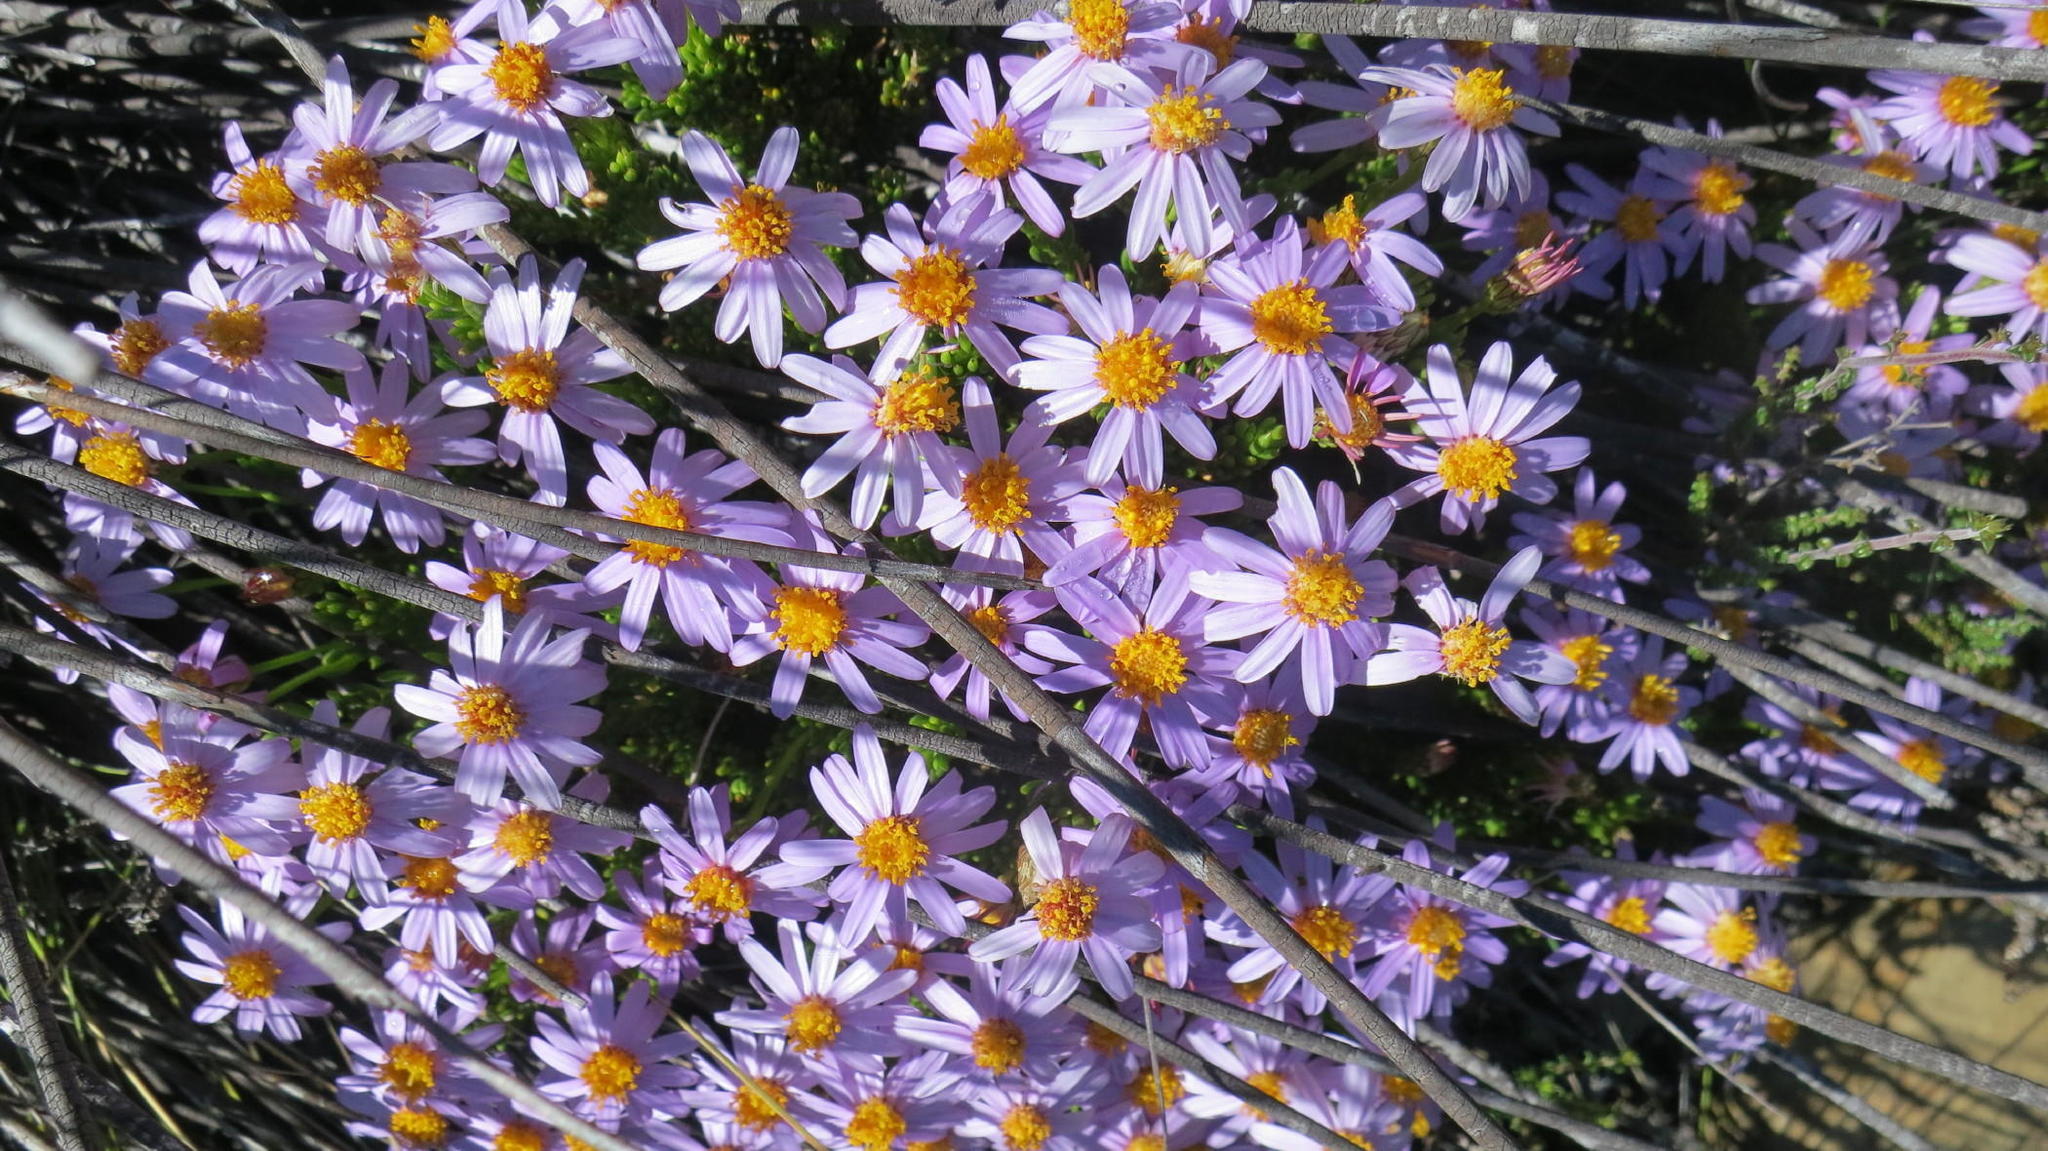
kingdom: Plantae
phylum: Tracheophyta
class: Magnoliopsida
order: Asterales
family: Asteraceae
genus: Felicia
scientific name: Felicia filifolia
